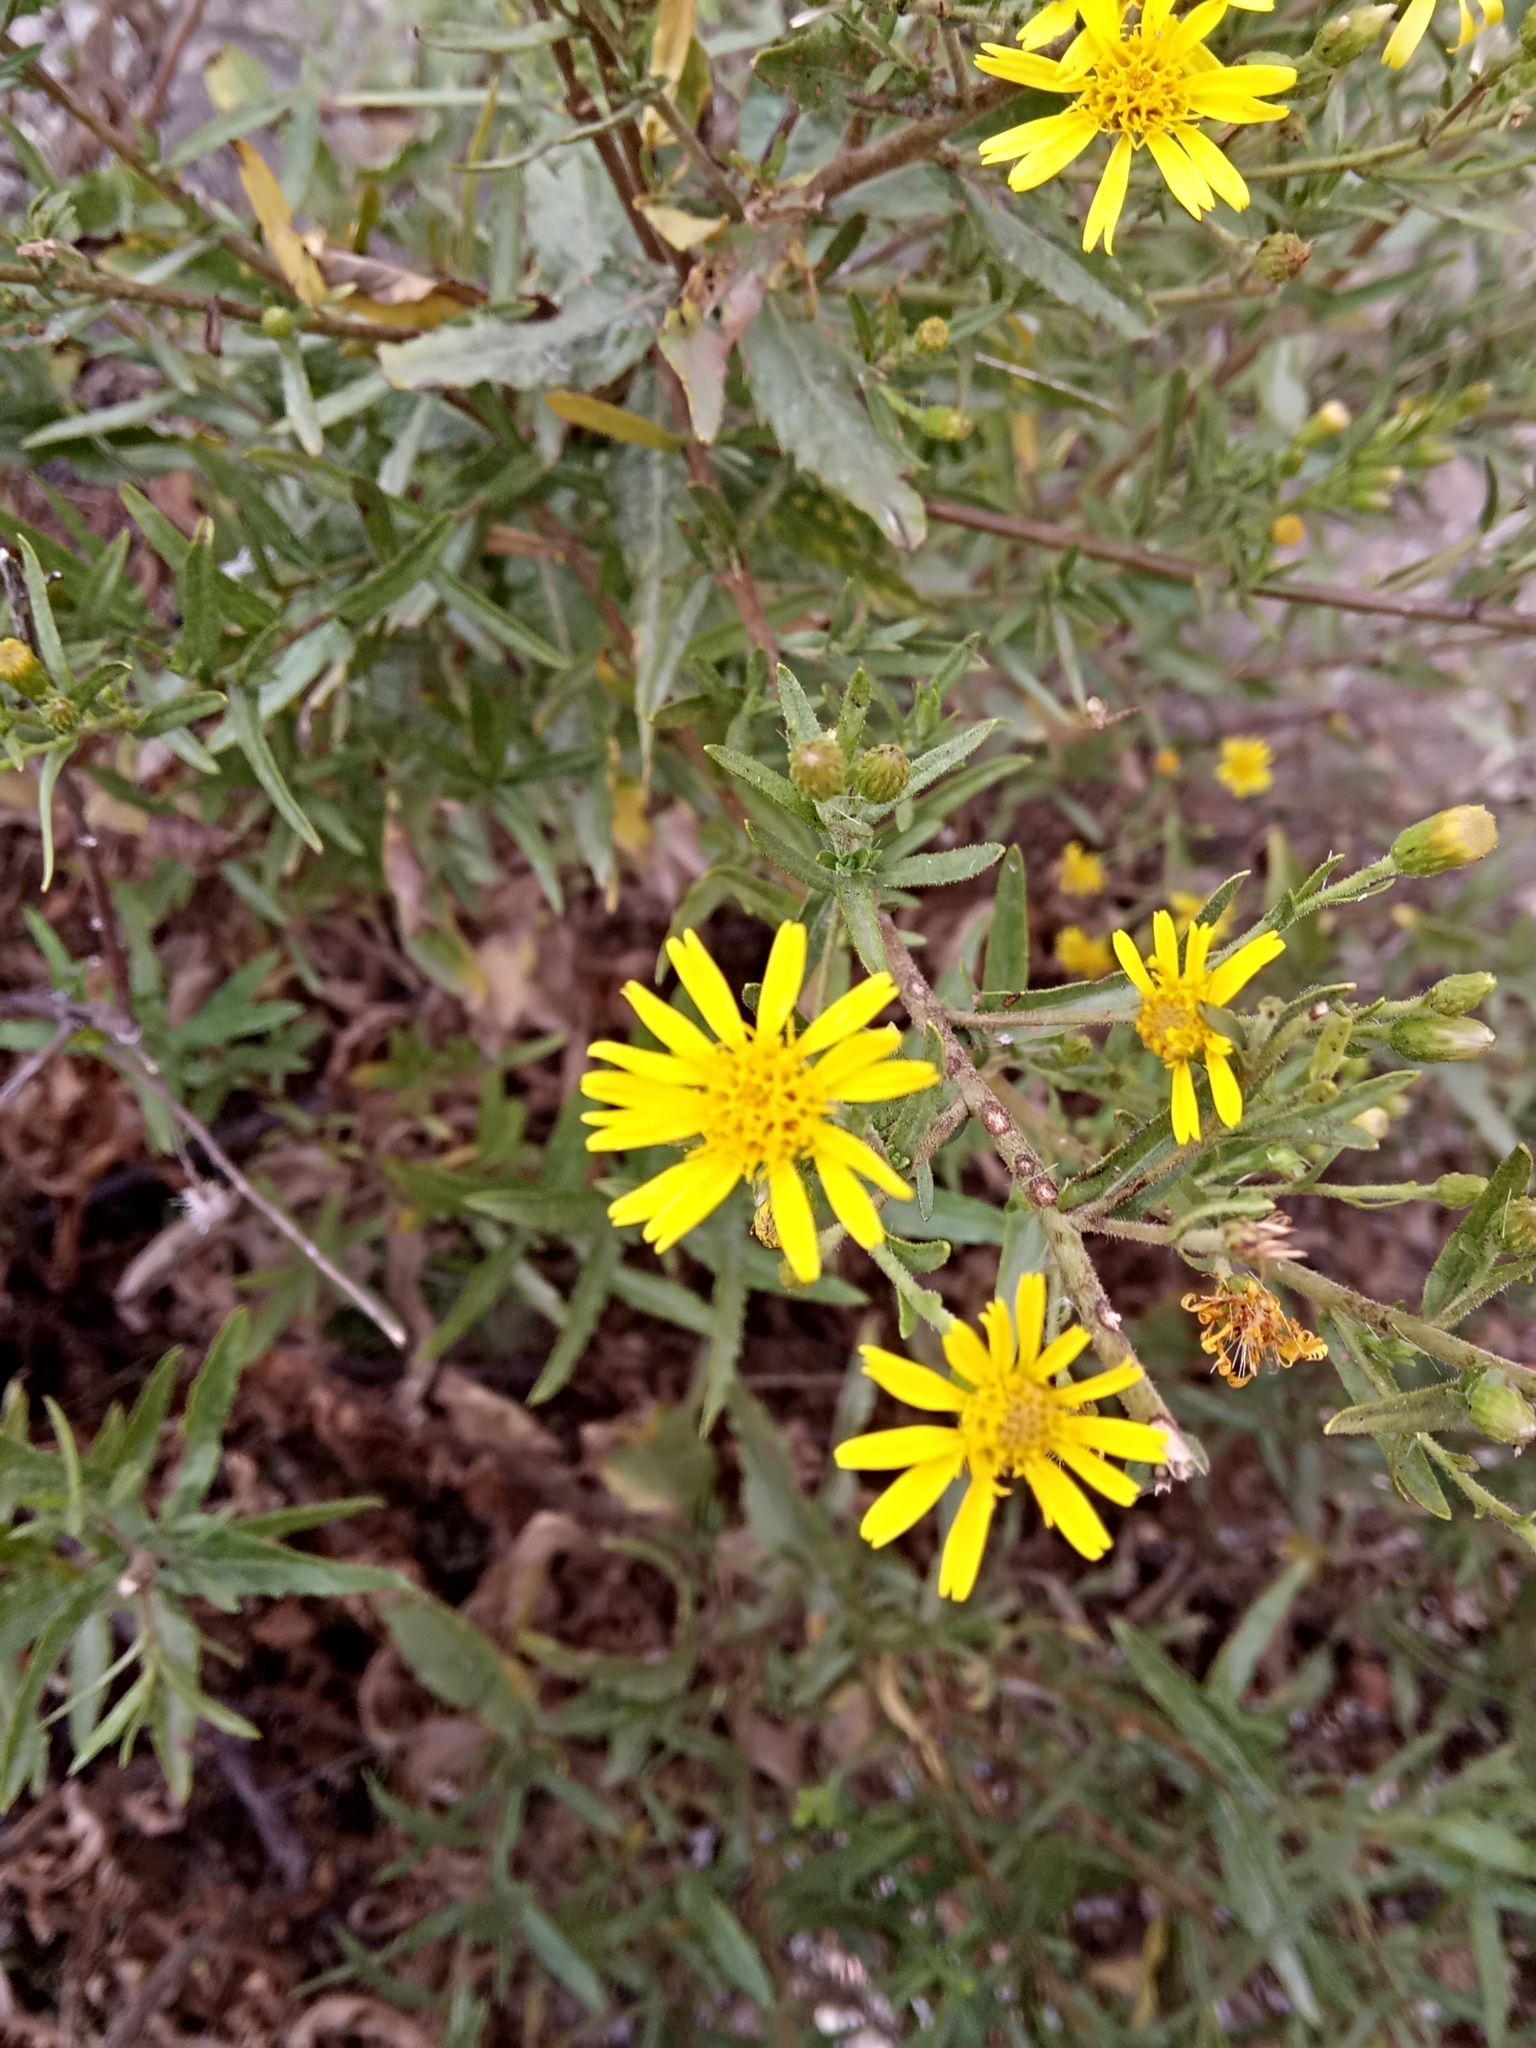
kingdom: Plantae
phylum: Tracheophyta
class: Magnoliopsida
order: Asterales
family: Asteraceae
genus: Dittrichia
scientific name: Dittrichia viscosa
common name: Woody fleabane
